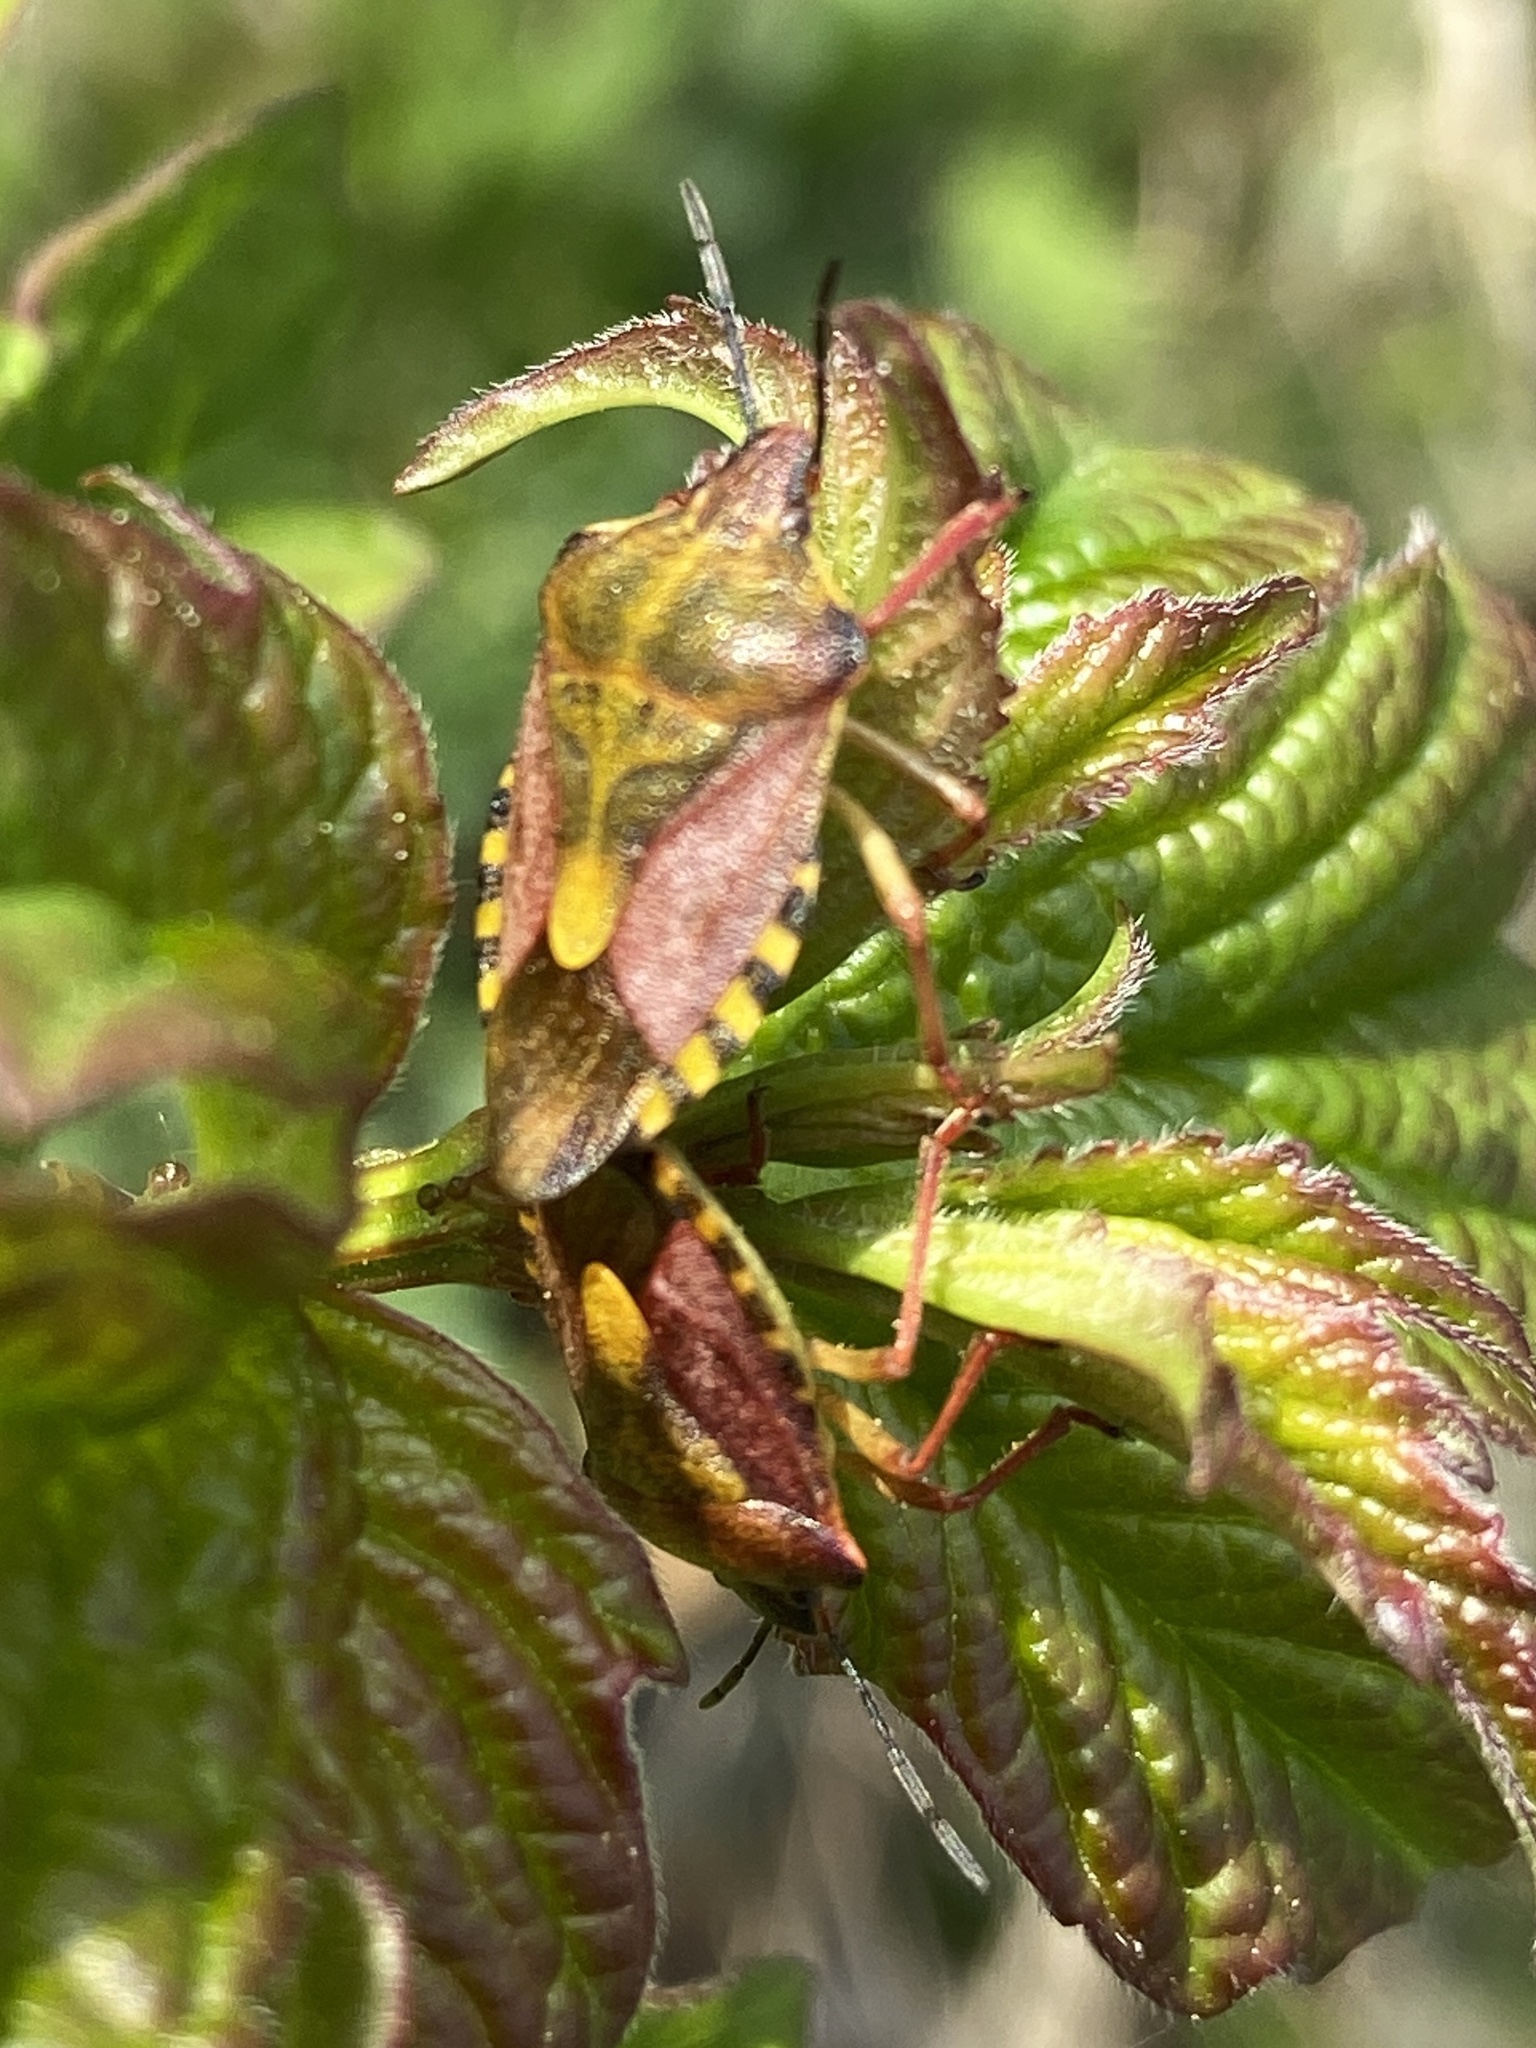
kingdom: Animalia
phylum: Arthropoda
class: Insecta
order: Hemiptera
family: Pentatomidae
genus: Carpocoris
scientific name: Carpocoris purpureipennis
